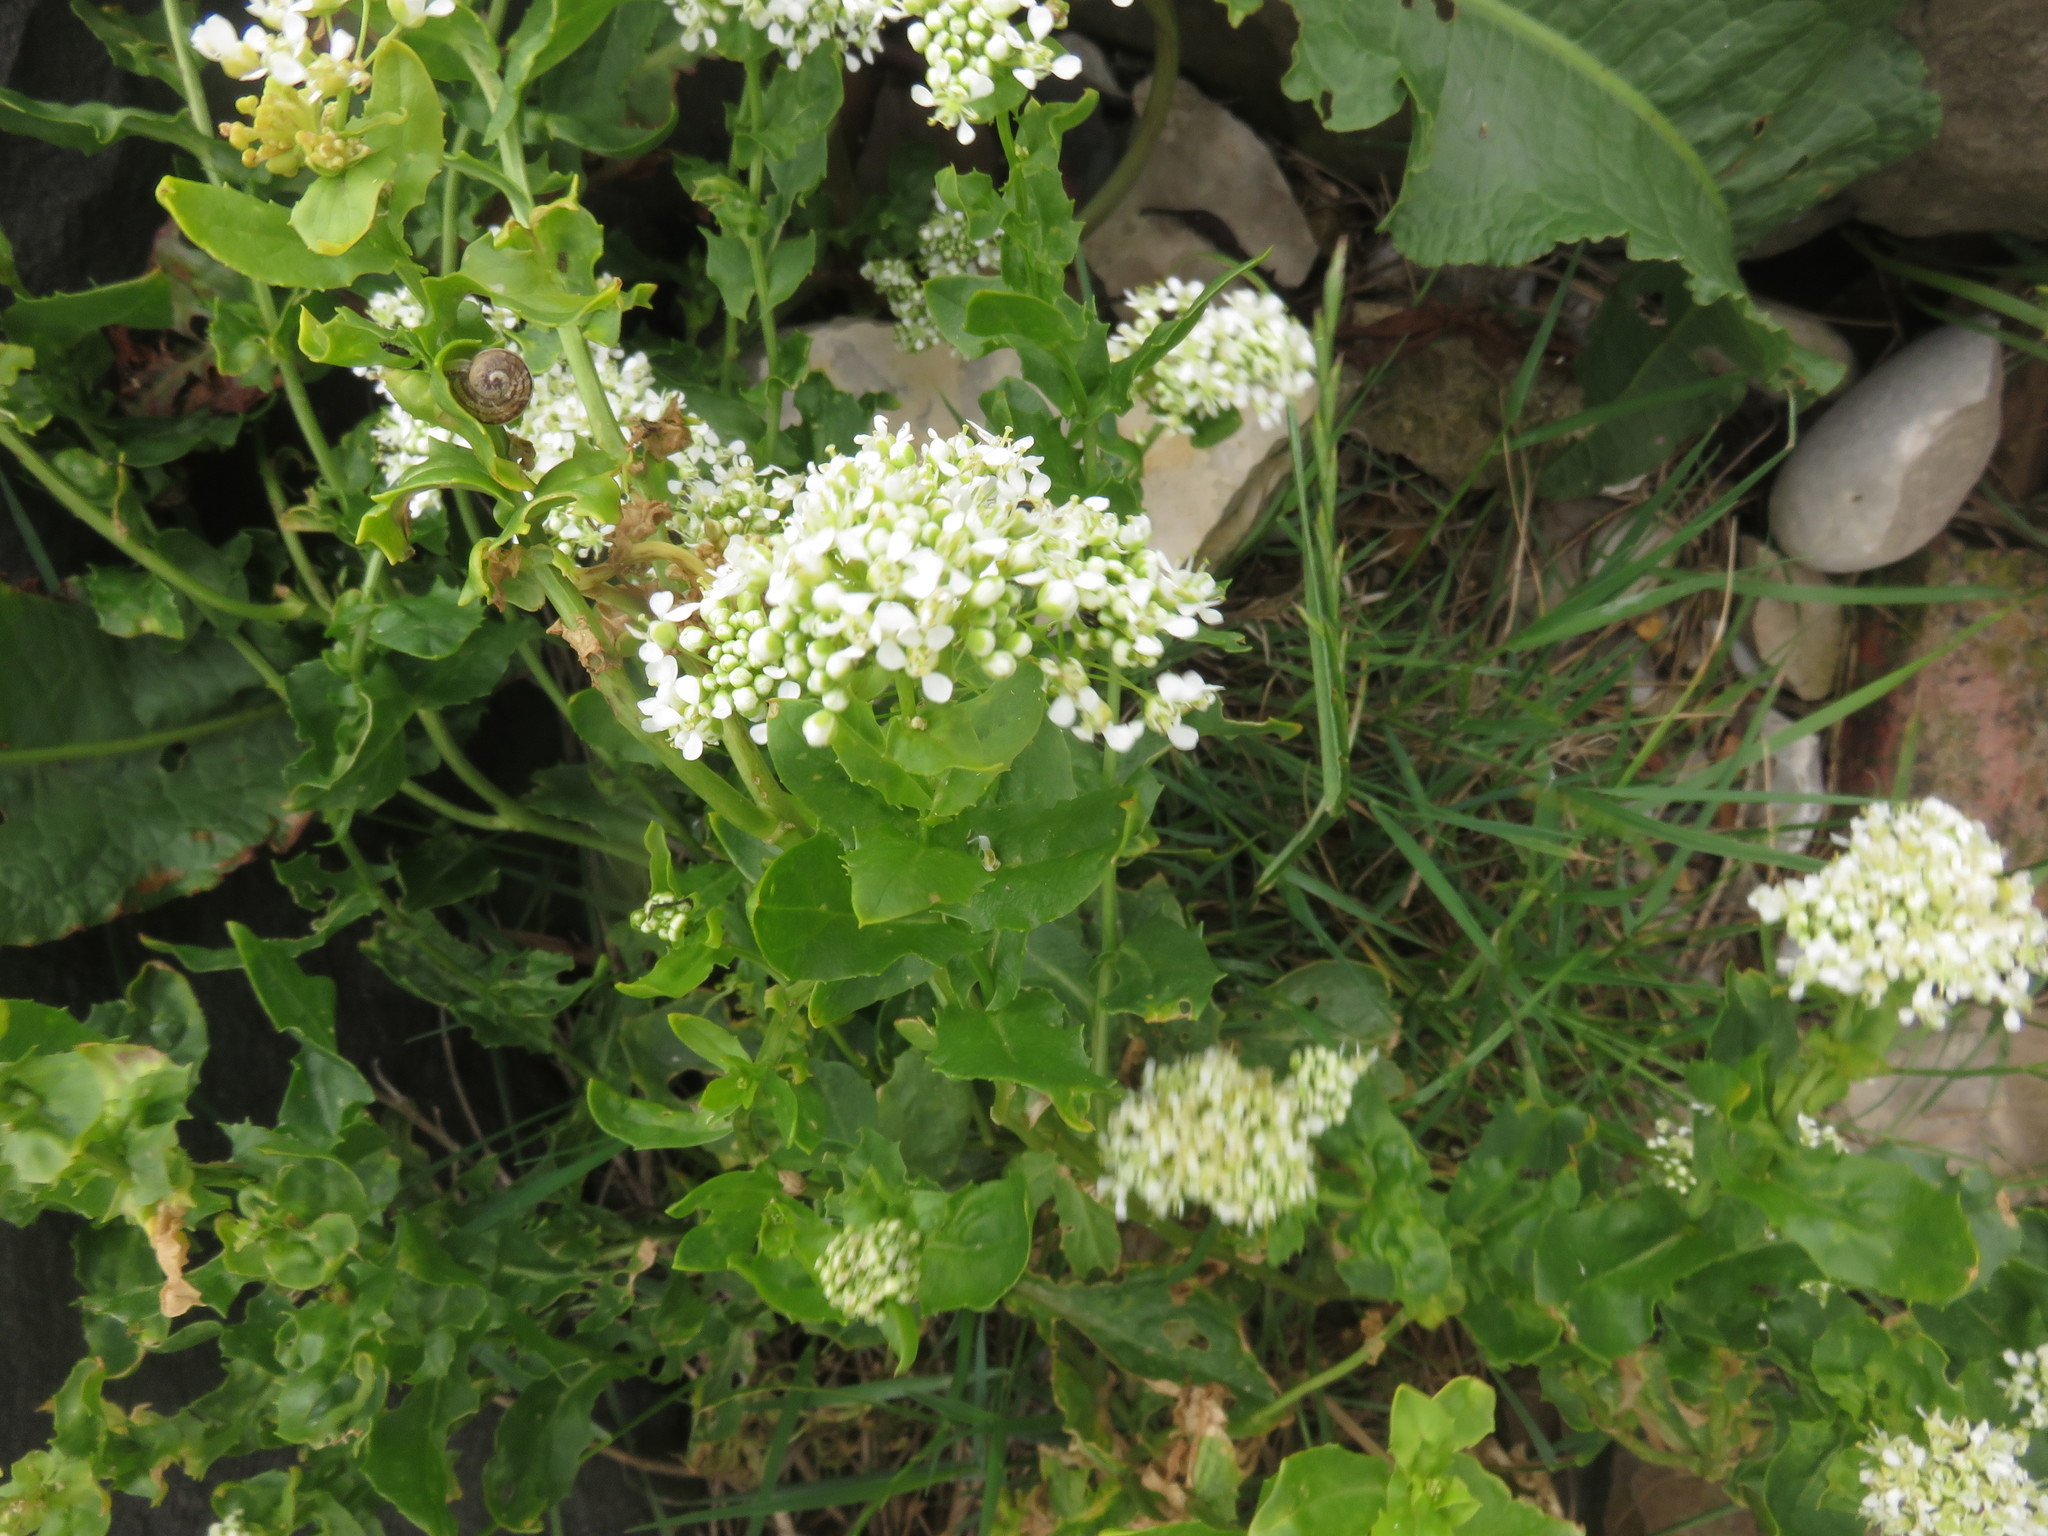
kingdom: Plantae
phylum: Tracheophyta
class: Magnoliopsida
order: Brassicales
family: Brassicaceae
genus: Lepidium
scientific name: Lepidium draba
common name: Hoary cress
